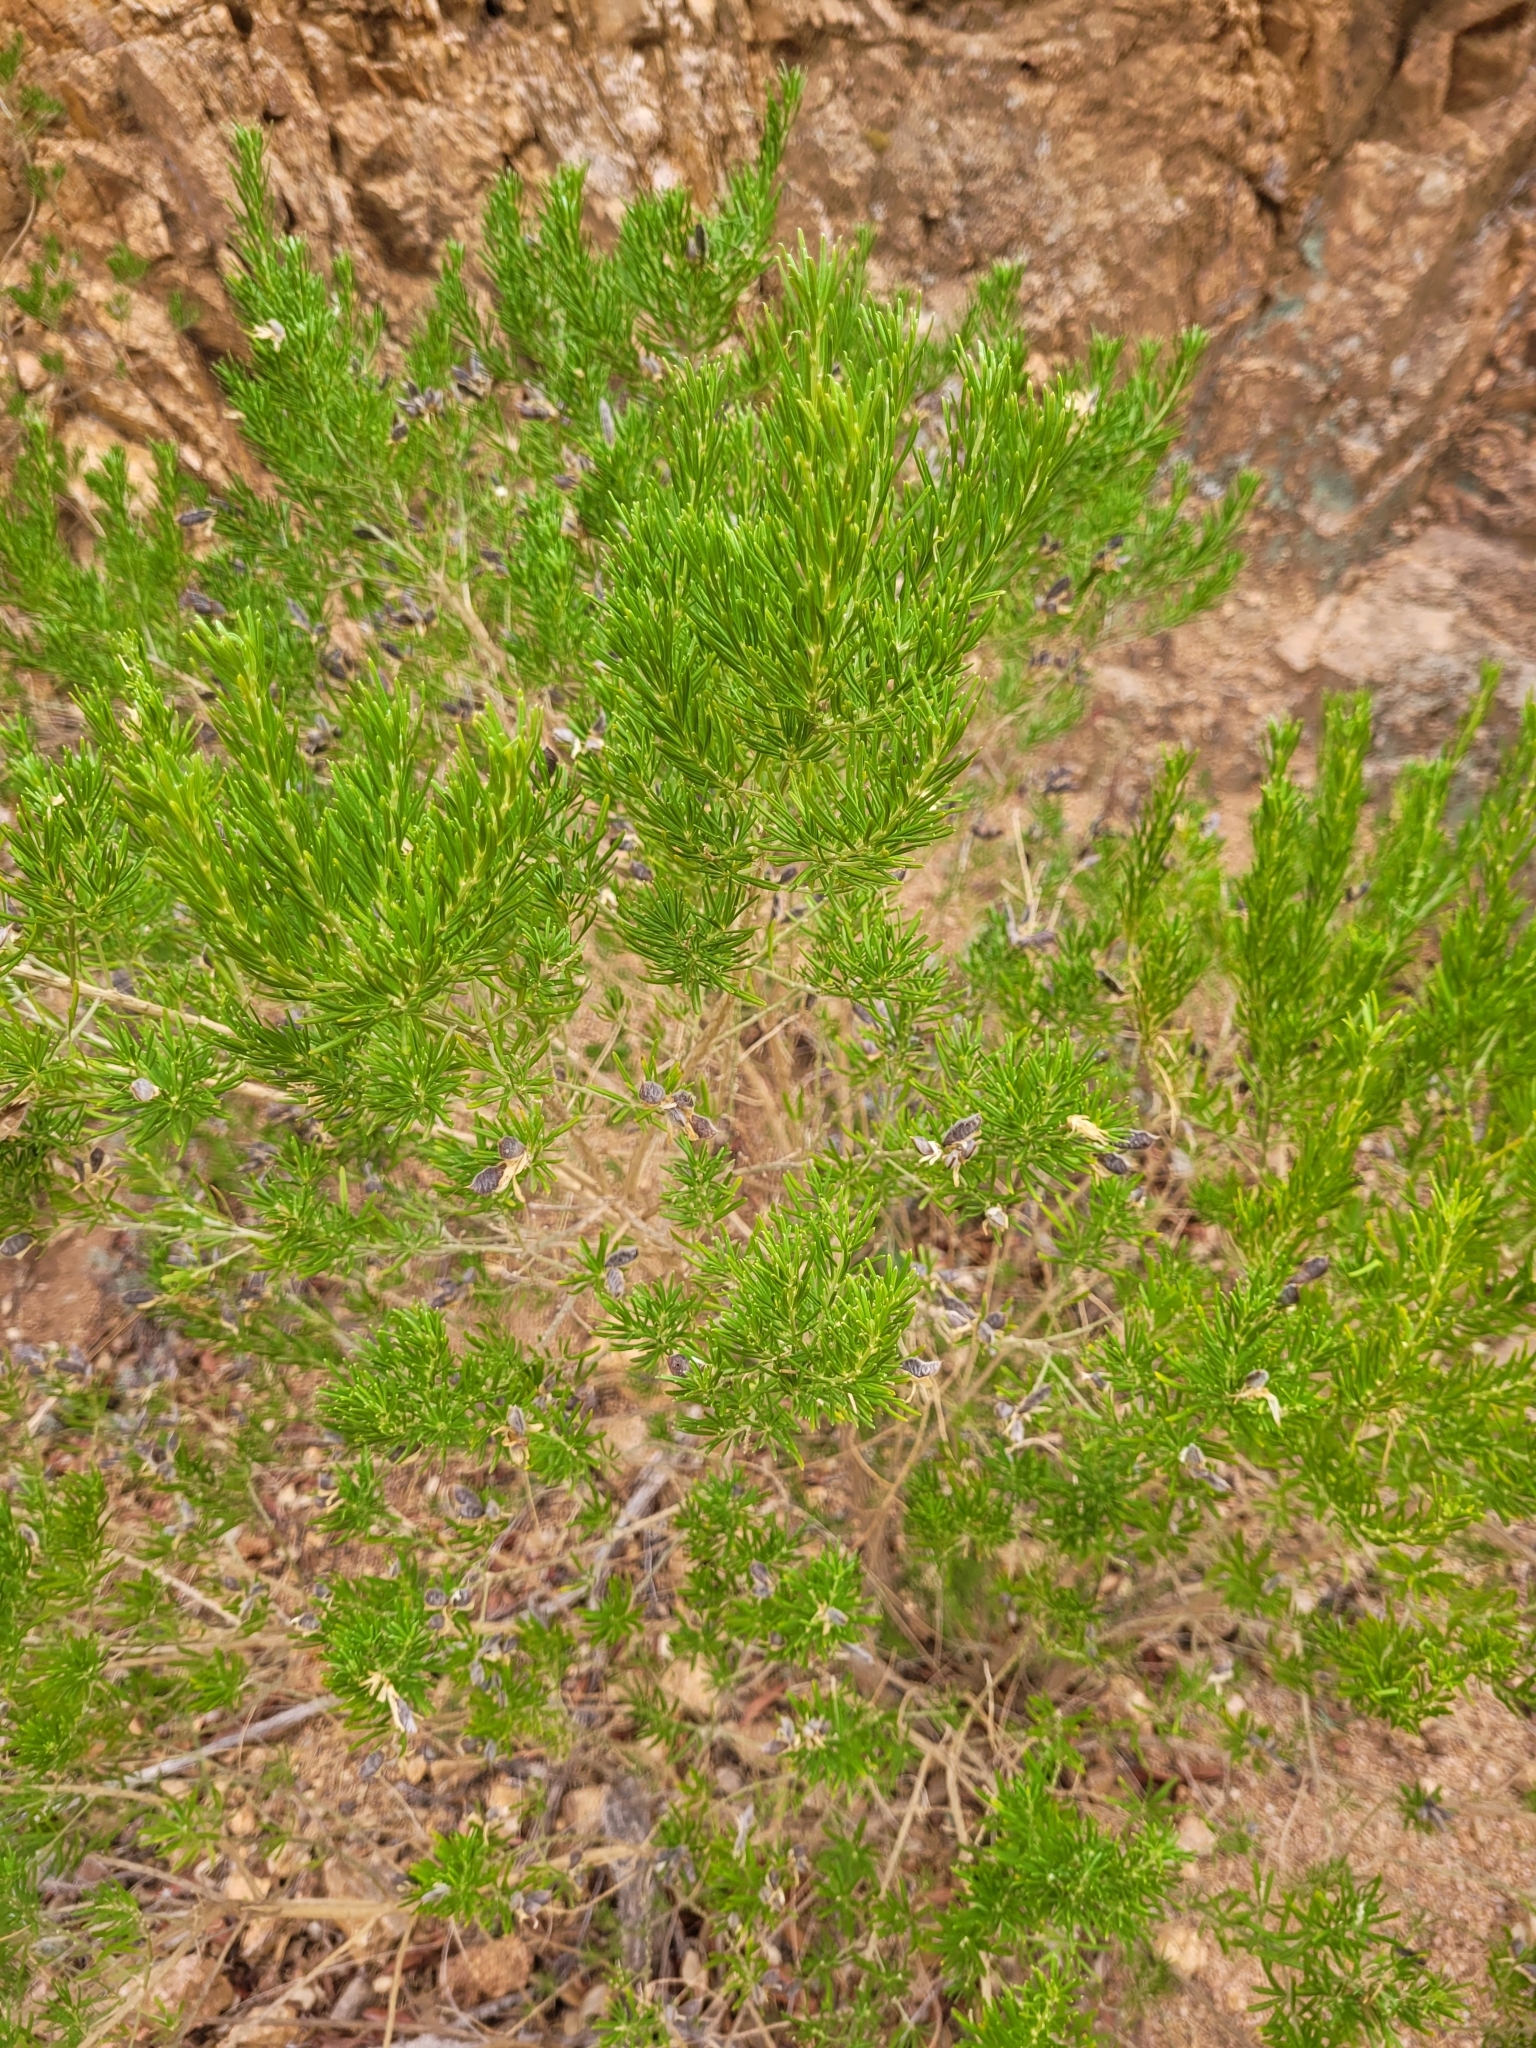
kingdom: Plantae
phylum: Tracheophyta
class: Magnoliopsida
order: Fabales
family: Fabaceae
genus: Genista
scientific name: Genista linifolia
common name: Mediterranean broom
